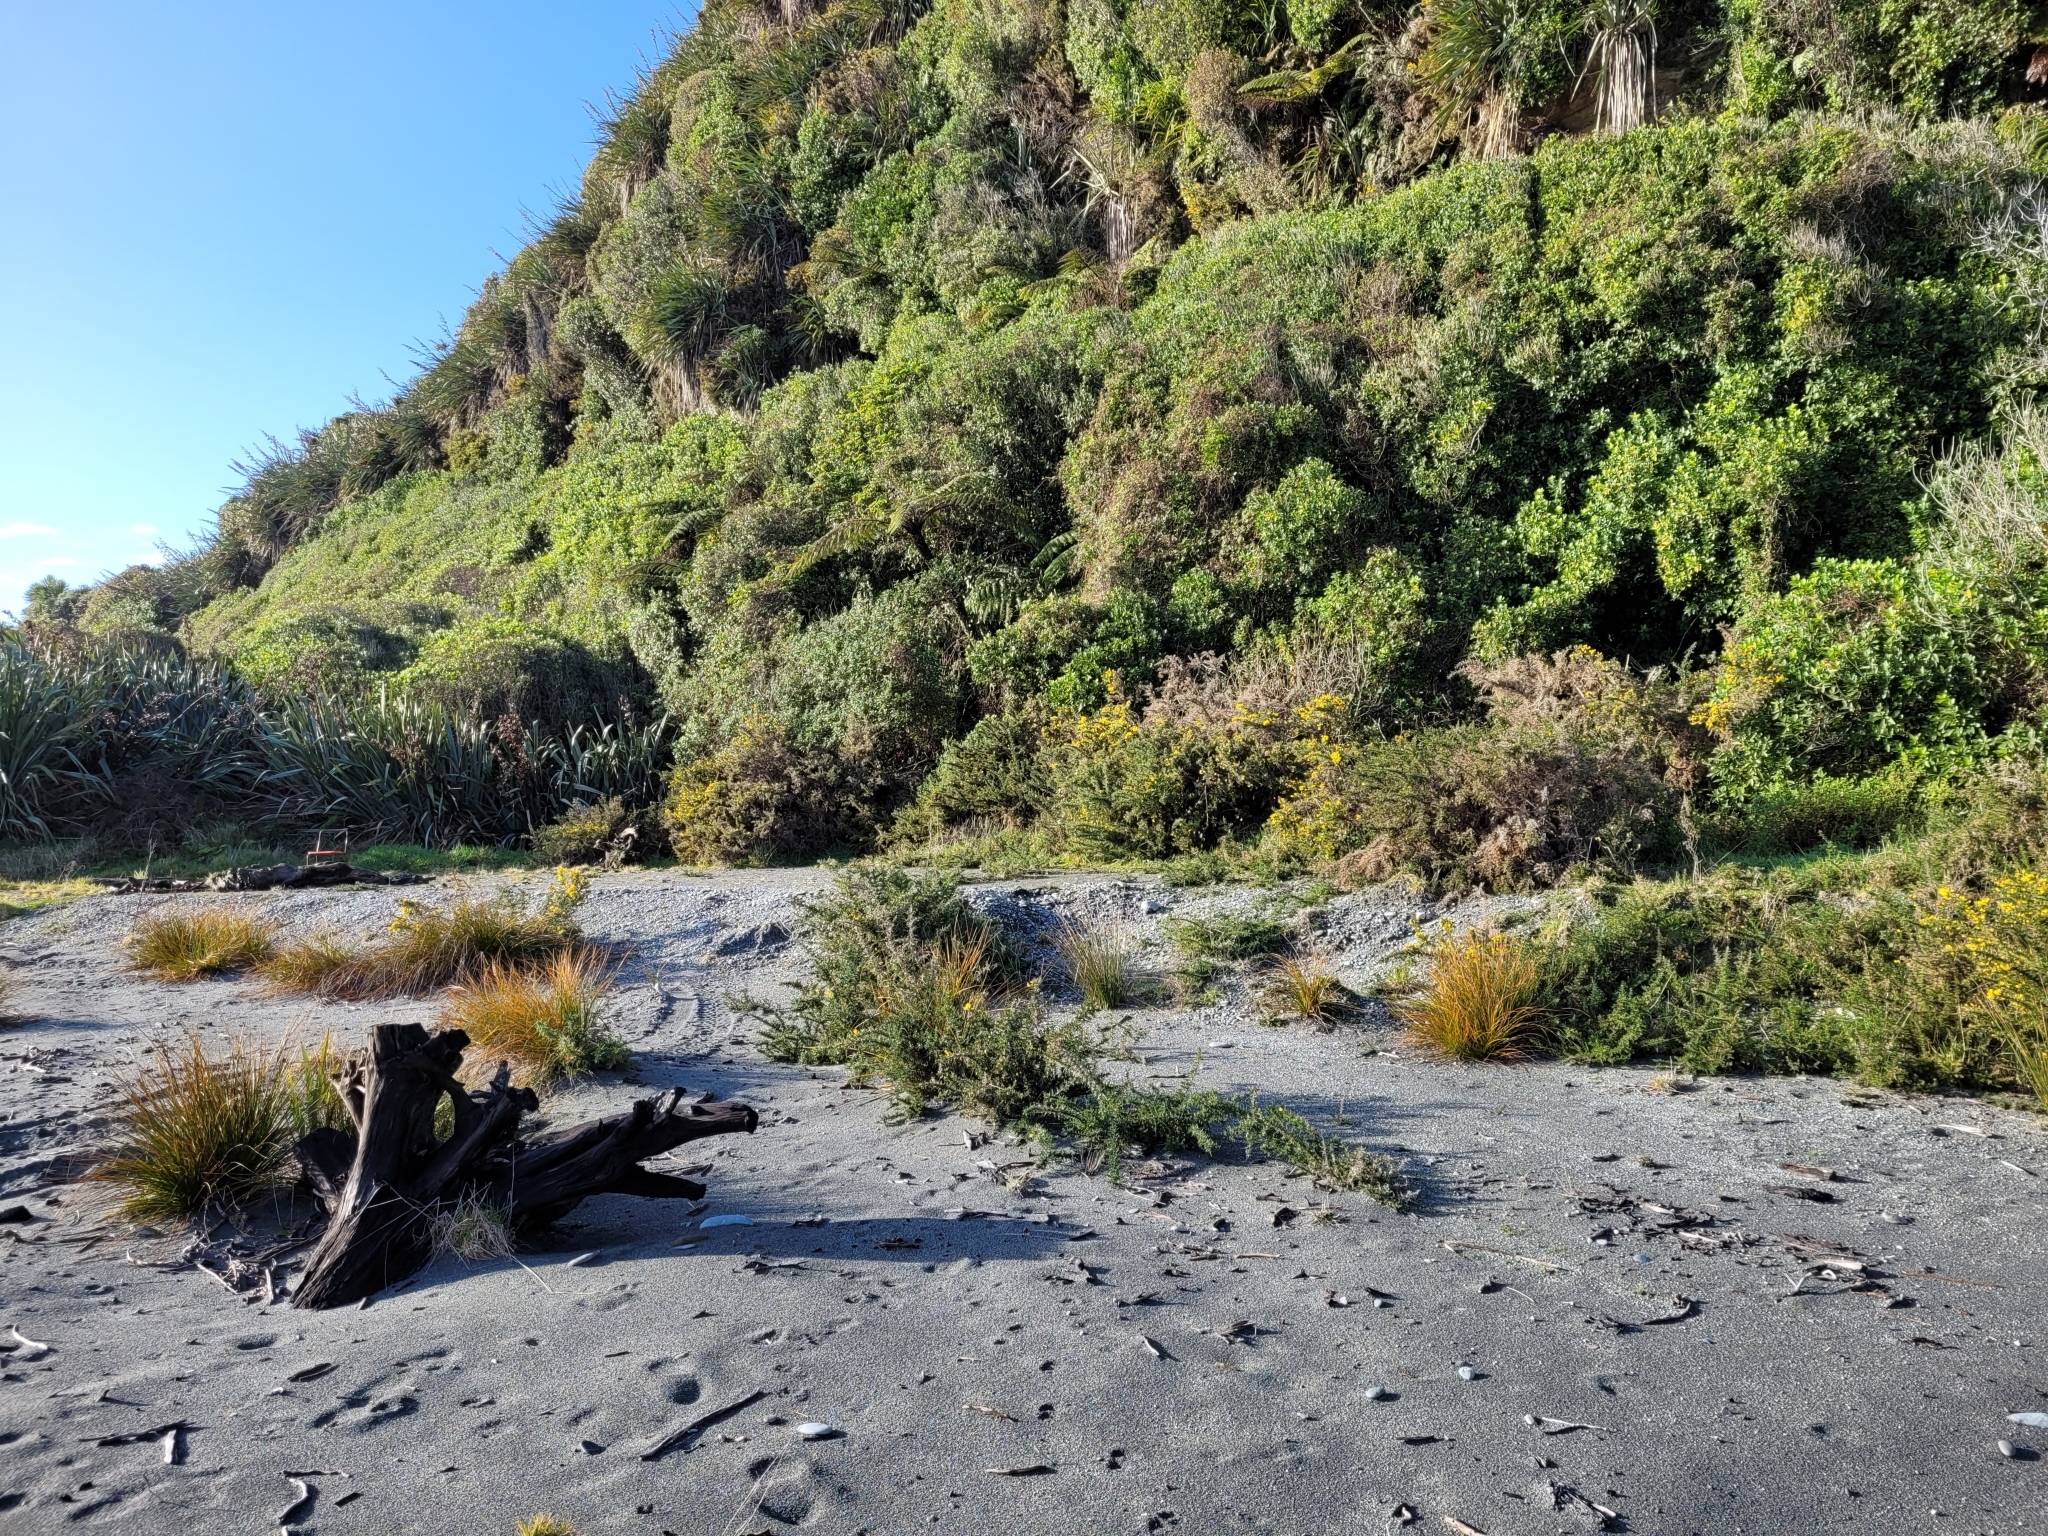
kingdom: Plantae
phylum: Tracheophyta
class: Magnoliopsida
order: Fabales
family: Fabaceae
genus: Ulex
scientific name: Ulex europaeus
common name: Common gorse
